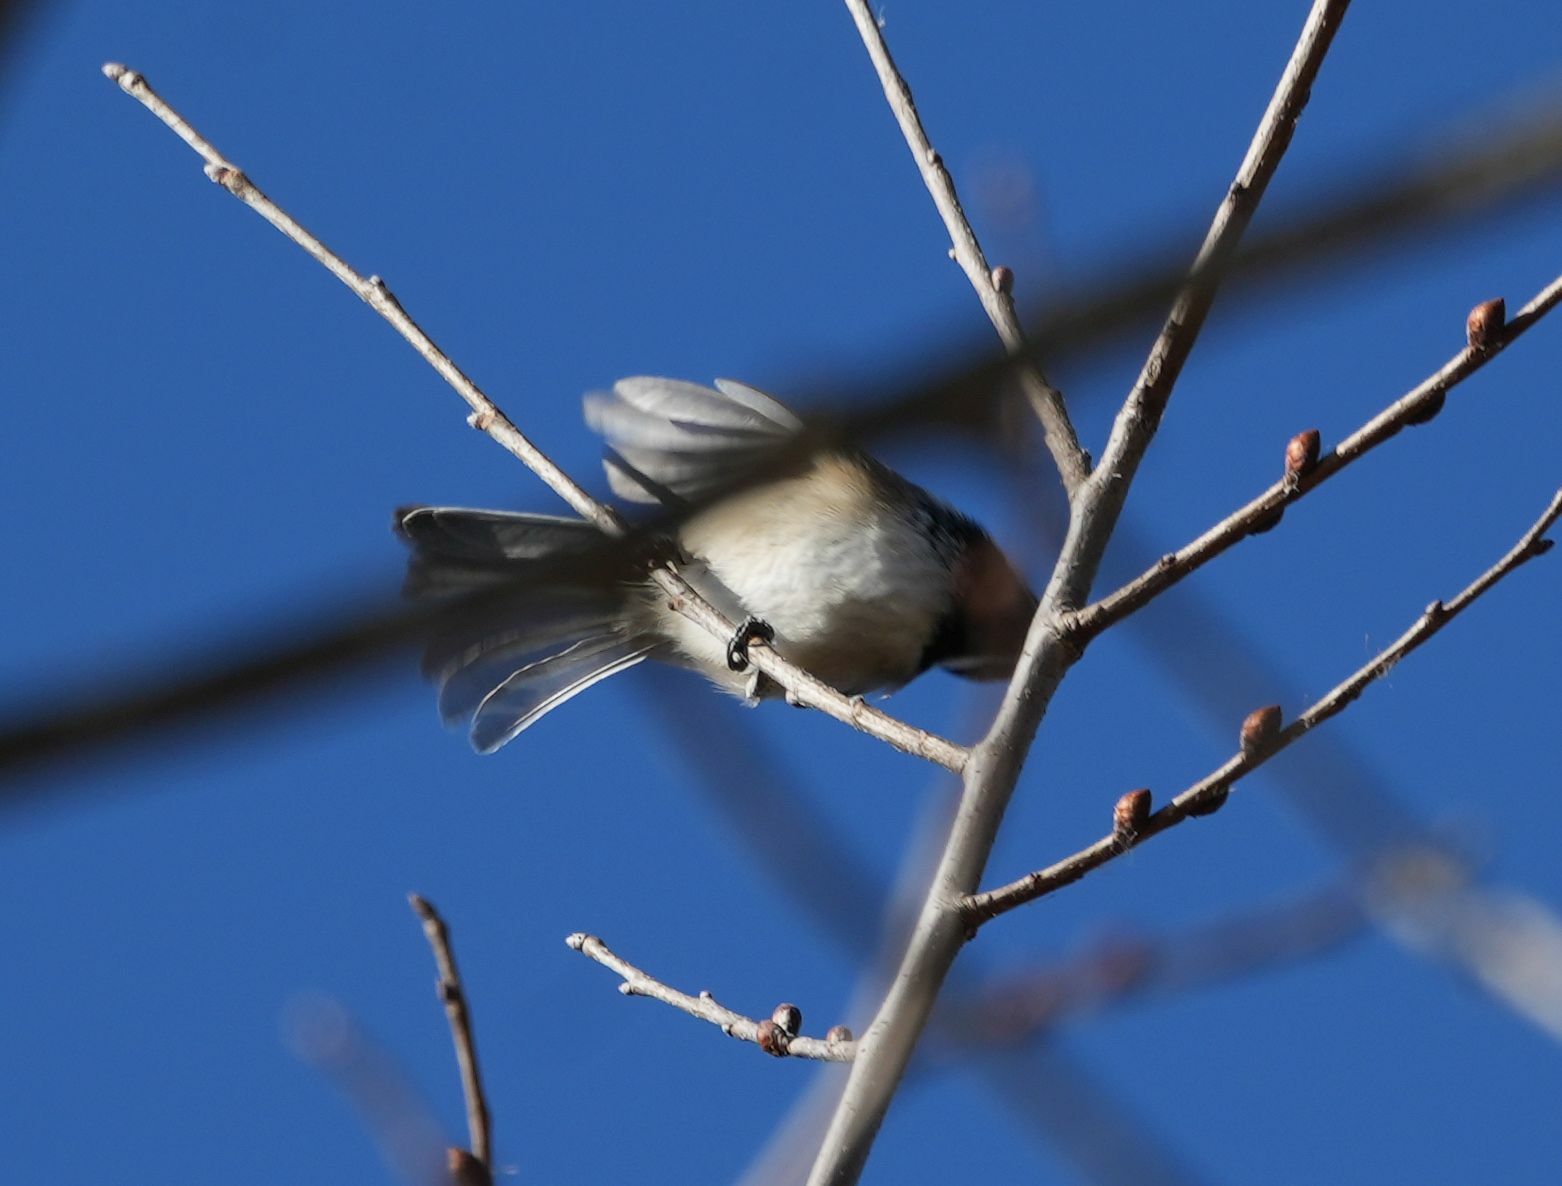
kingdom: Animalia
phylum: Chordata
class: Aves
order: Passeriformes
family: Paridae
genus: Poecile
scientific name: Poecile atricapillus
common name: Black-capped chickadee
